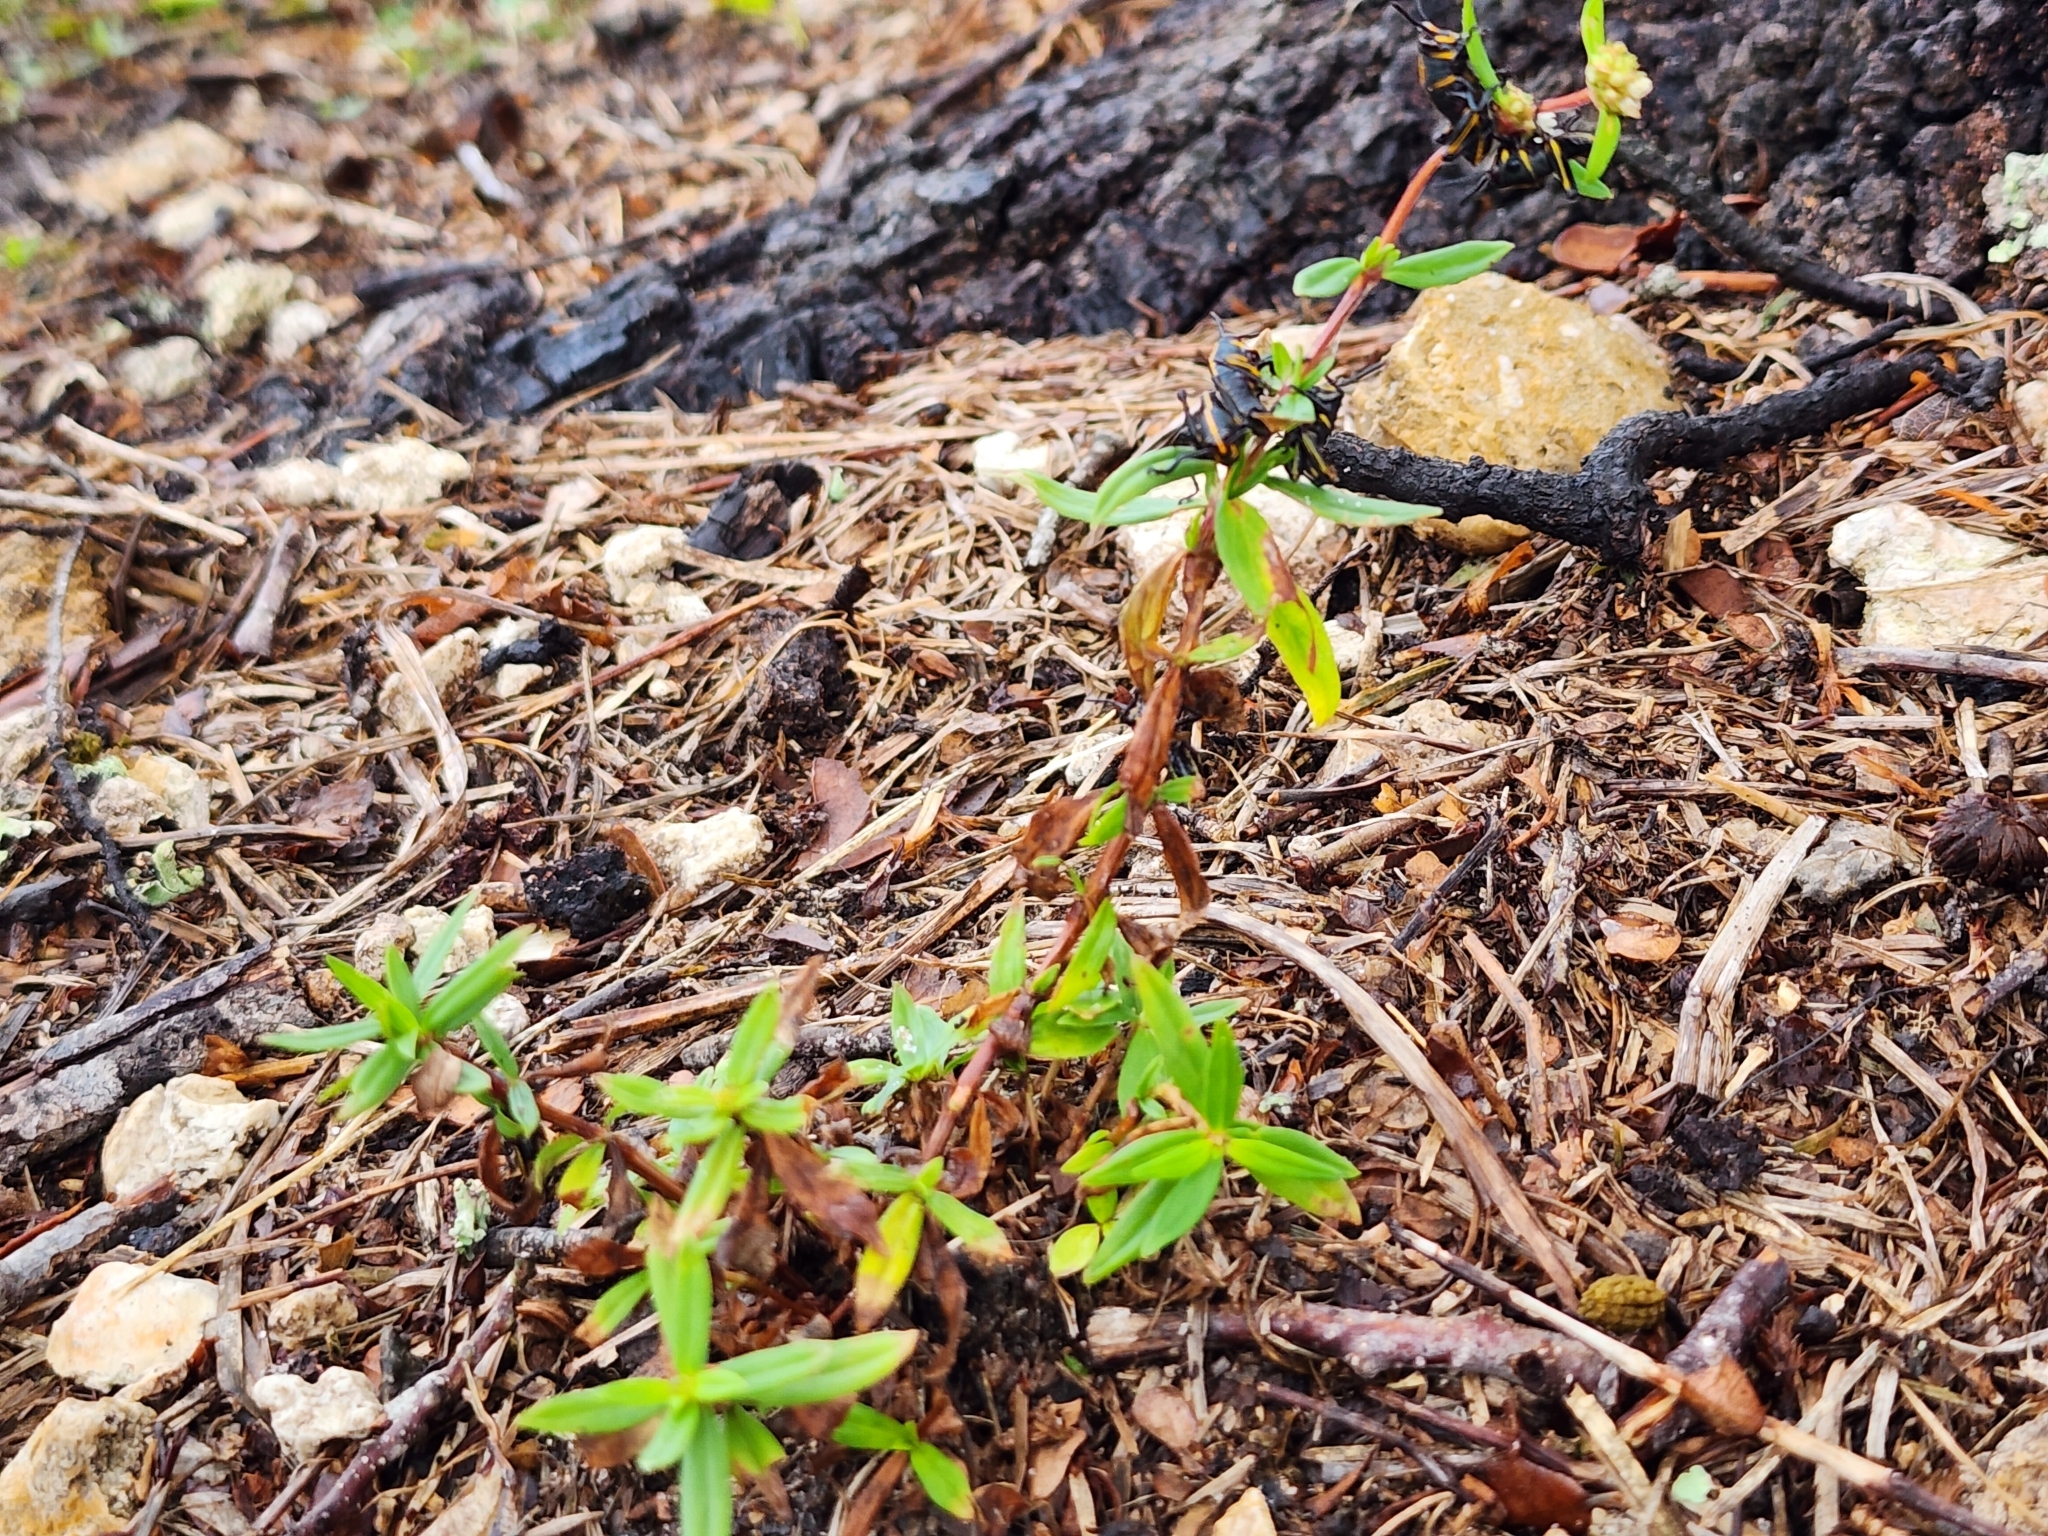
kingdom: Plantae
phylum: Tracheophyta
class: Magnoliopsida
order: Gentianales
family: Rubiaceae
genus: Spermacoce
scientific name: Spermacoce verticillata
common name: Shrubby false buttonweed
